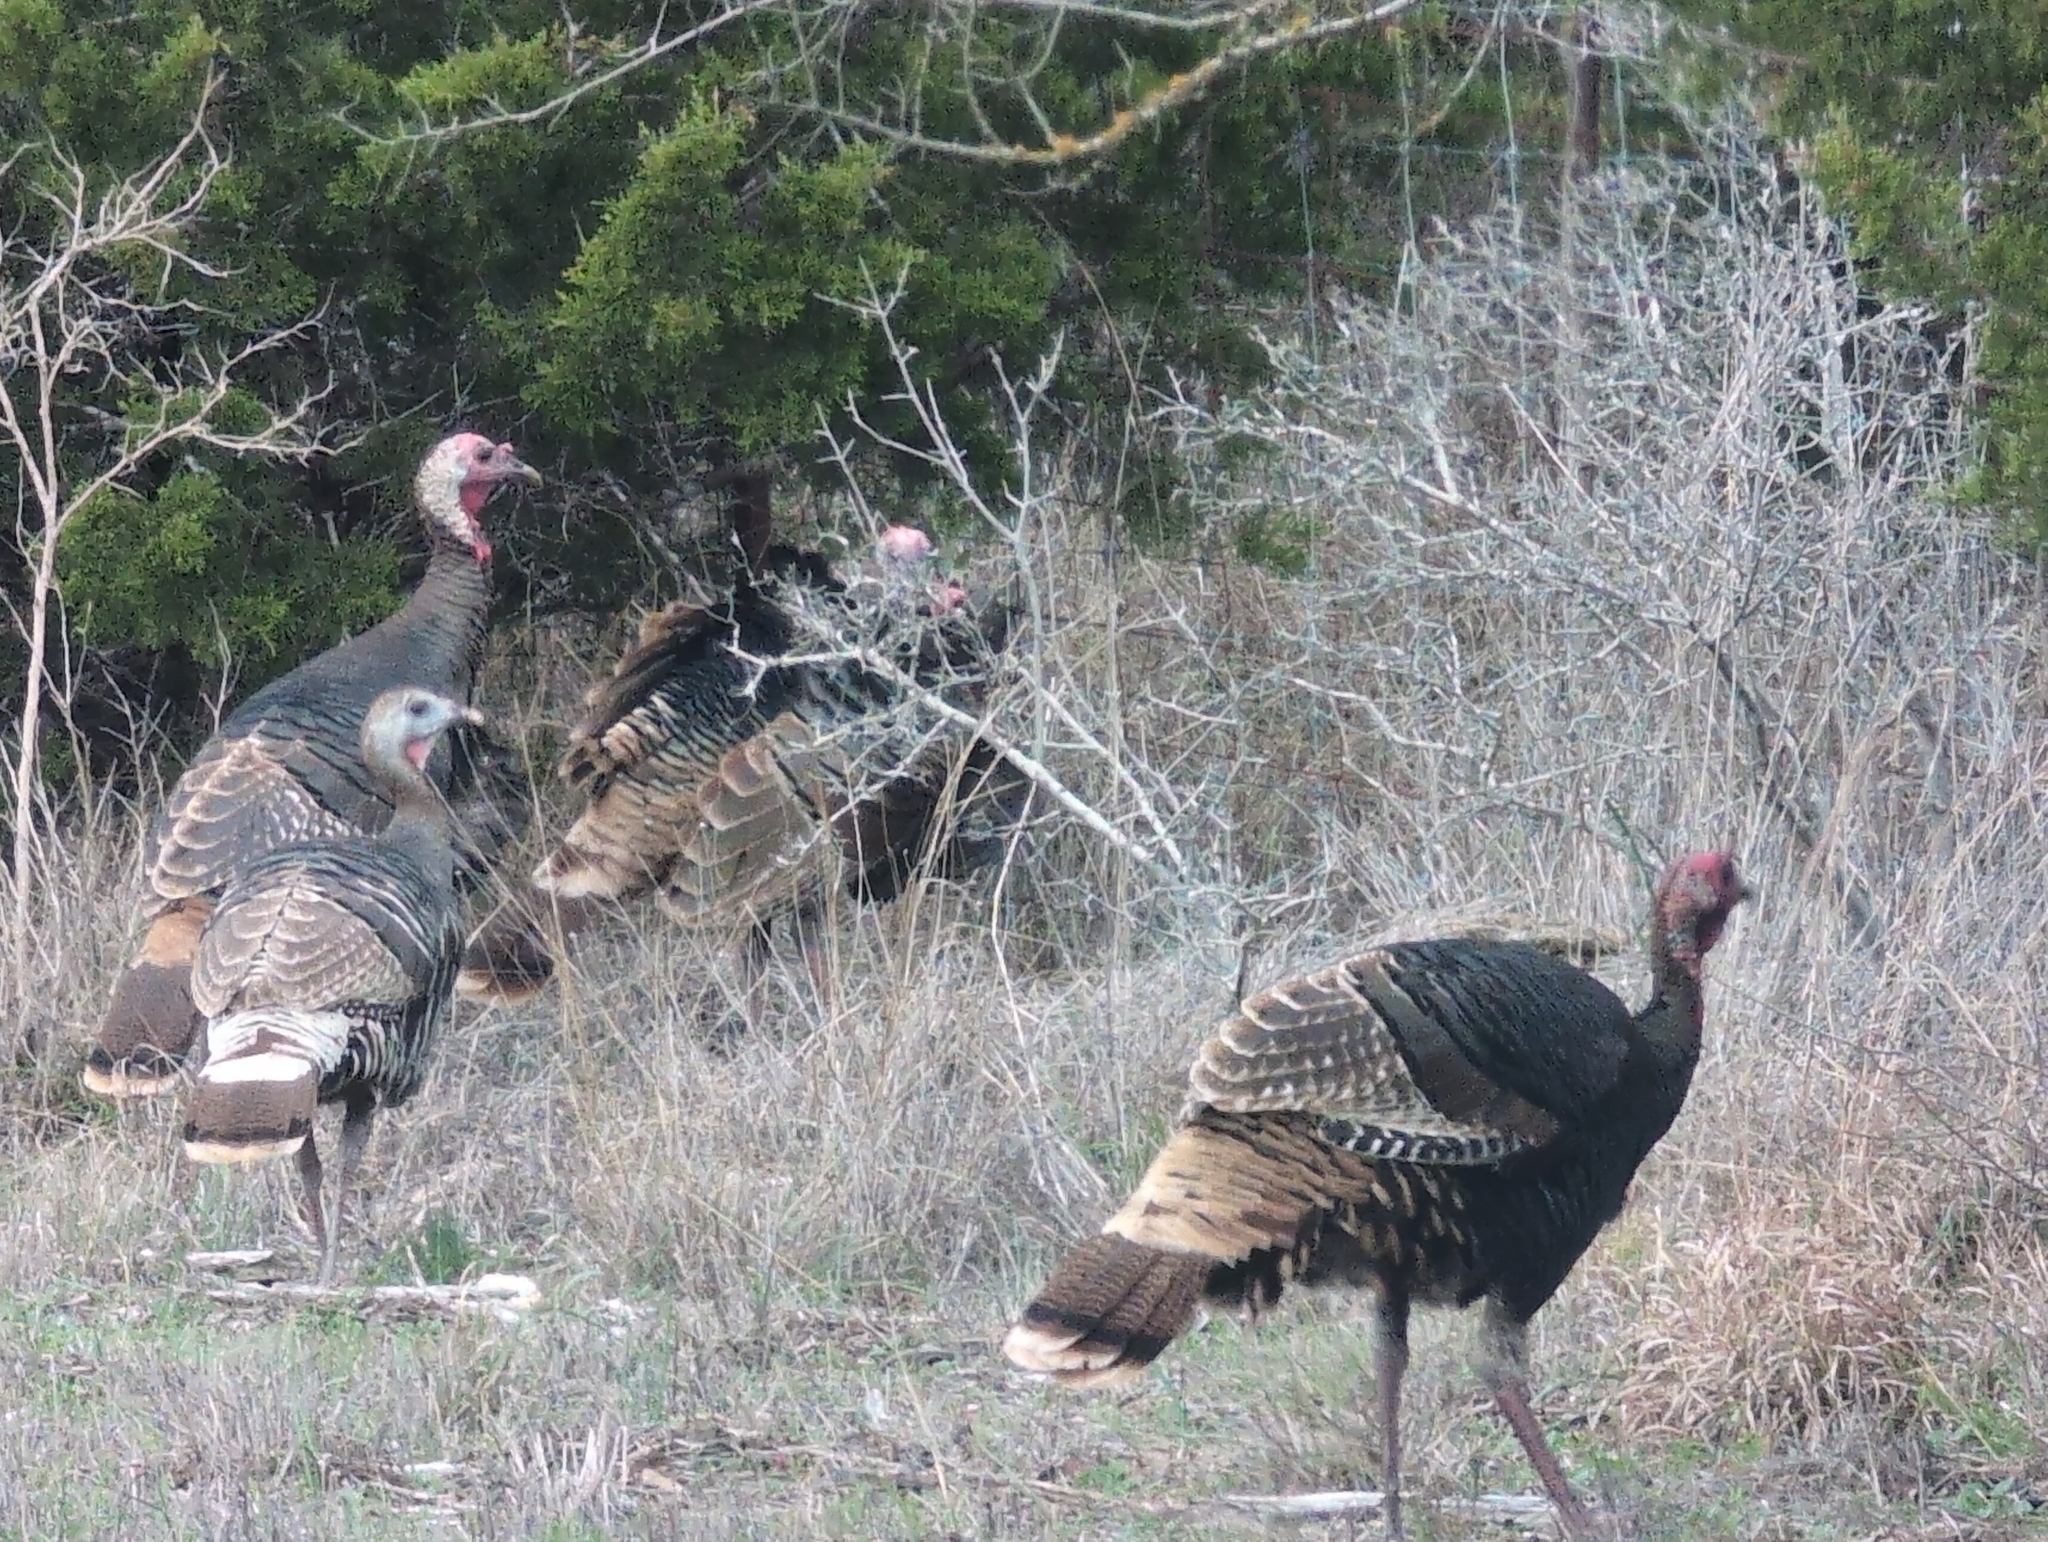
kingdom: Animalia
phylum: Chordata
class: Aves
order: Galliformes
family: Phasianidae
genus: Meleagris
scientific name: Meleagris gallopavo
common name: Wild turkey
